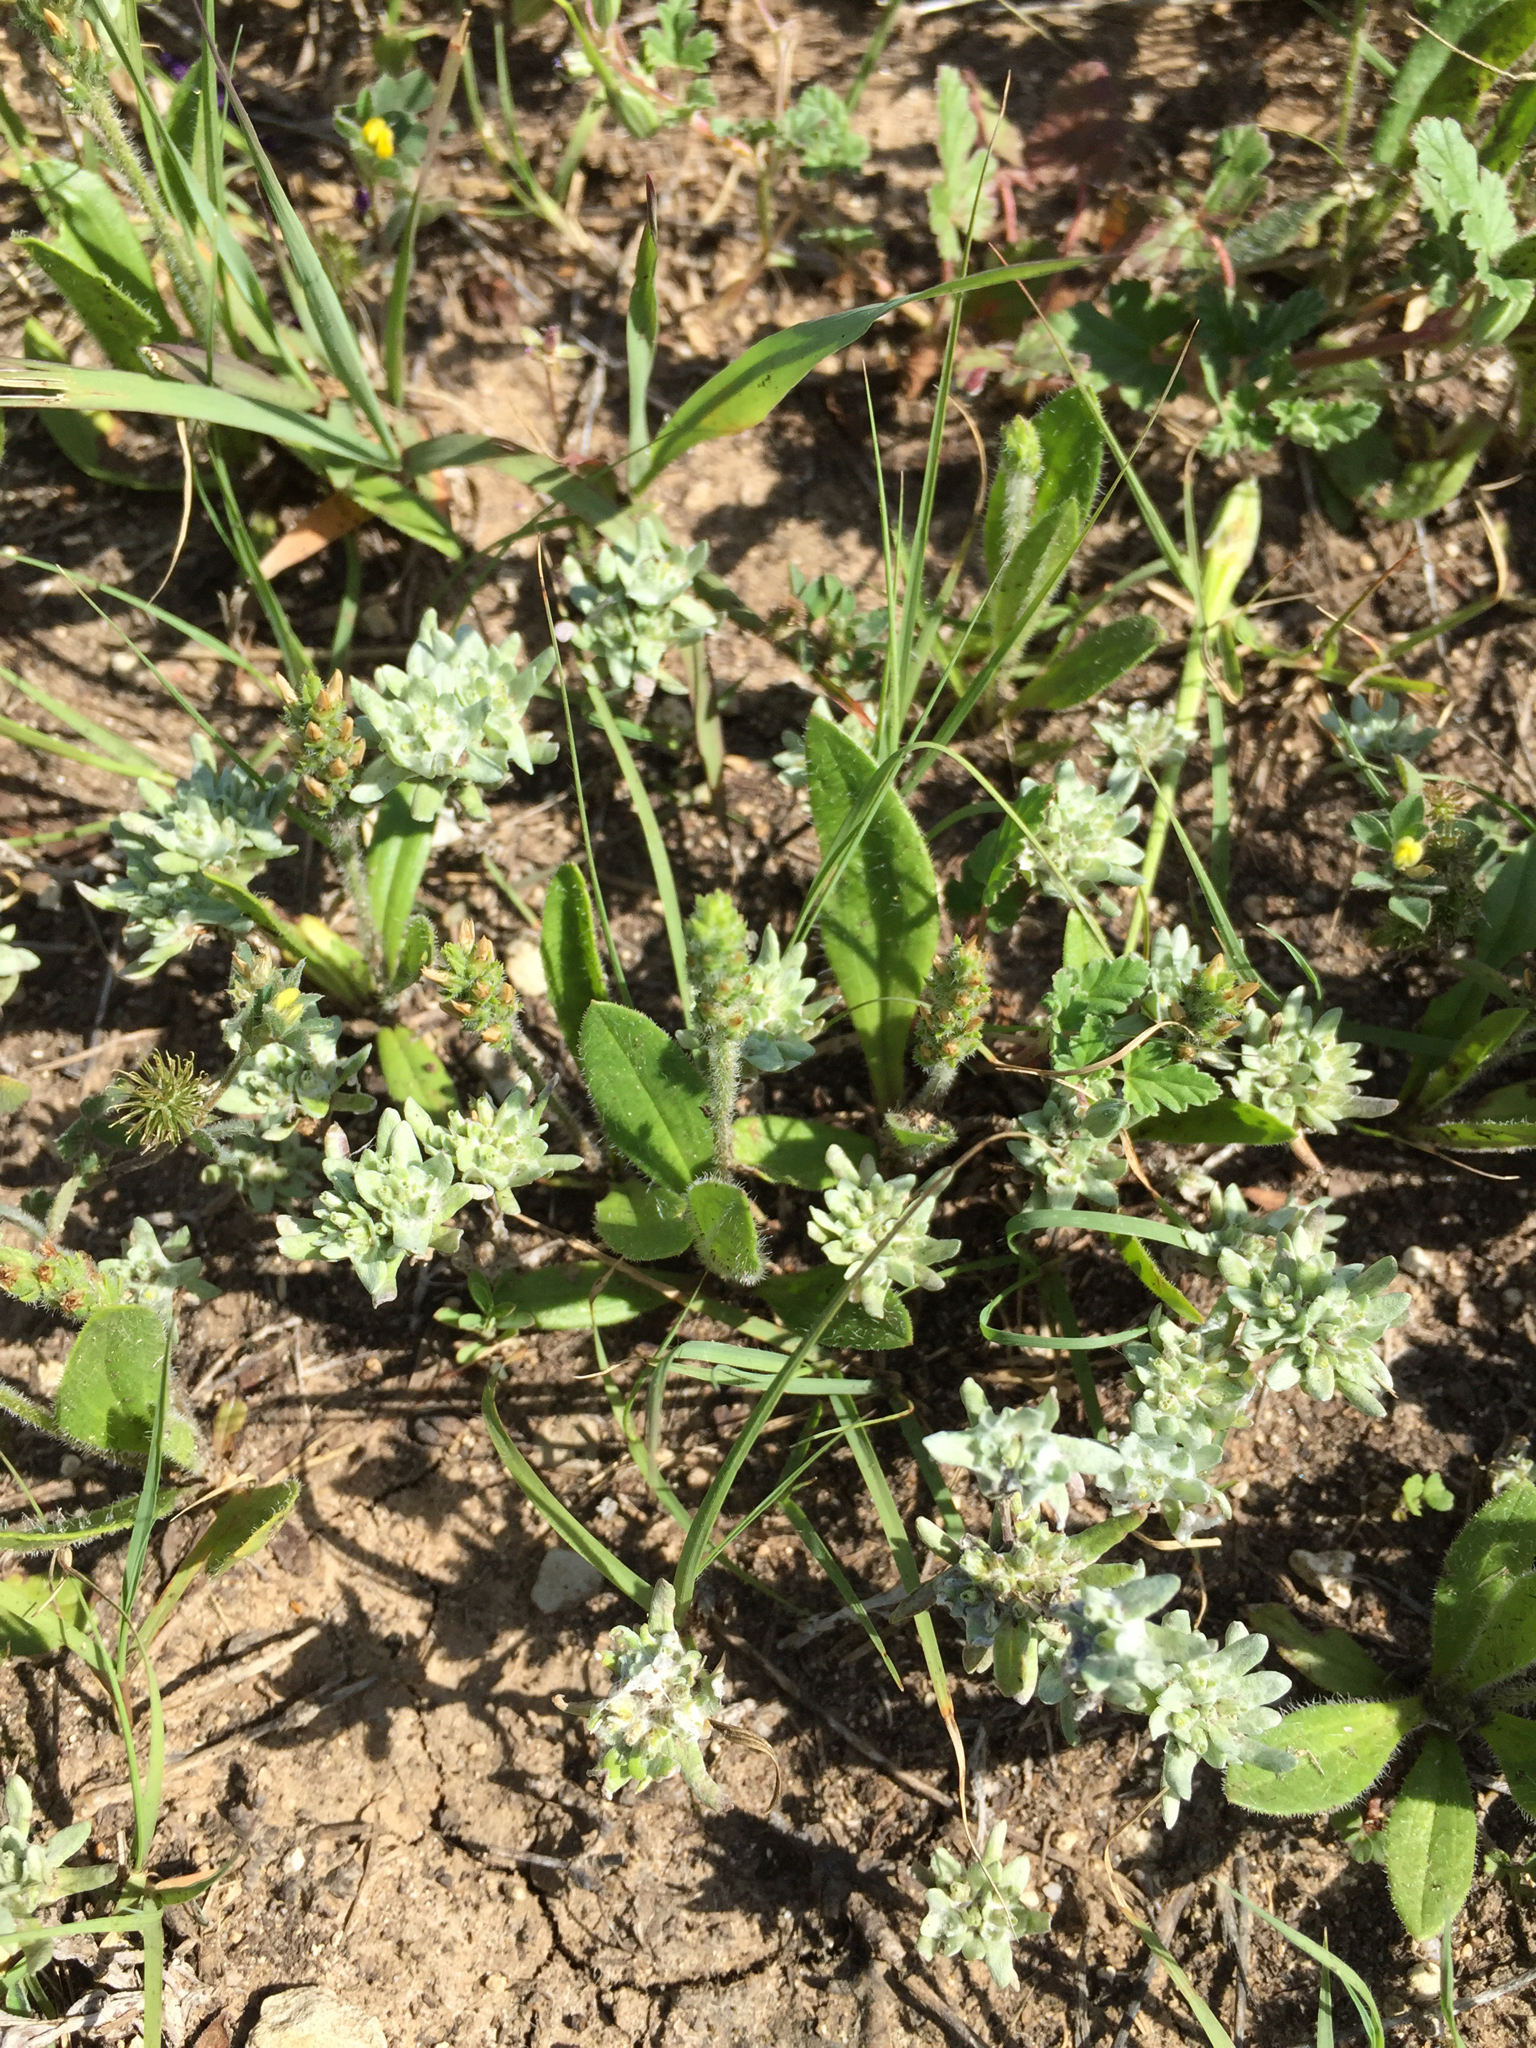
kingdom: Plantae
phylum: Tracheophyta
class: Magnoliopsida
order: Asterales
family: Asteraceae
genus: Diaperia
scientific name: Diaperia prolifera
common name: Big-head rabbit-tobacco
